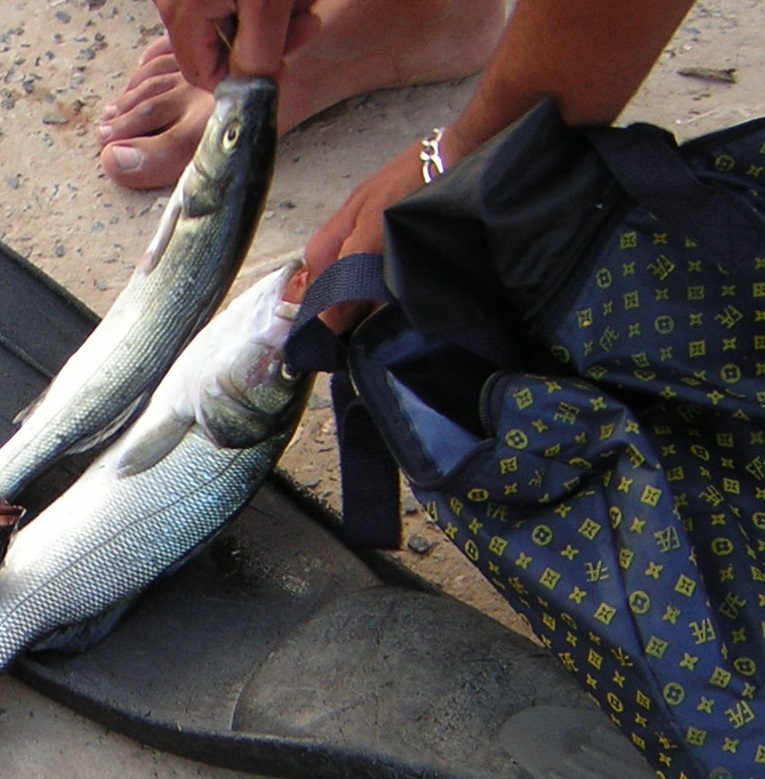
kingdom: Animalia
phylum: Chordata
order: Perciformes
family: Moronidae
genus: Dicentrarchus
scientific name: Dicentrarchus labrax
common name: European seabass
